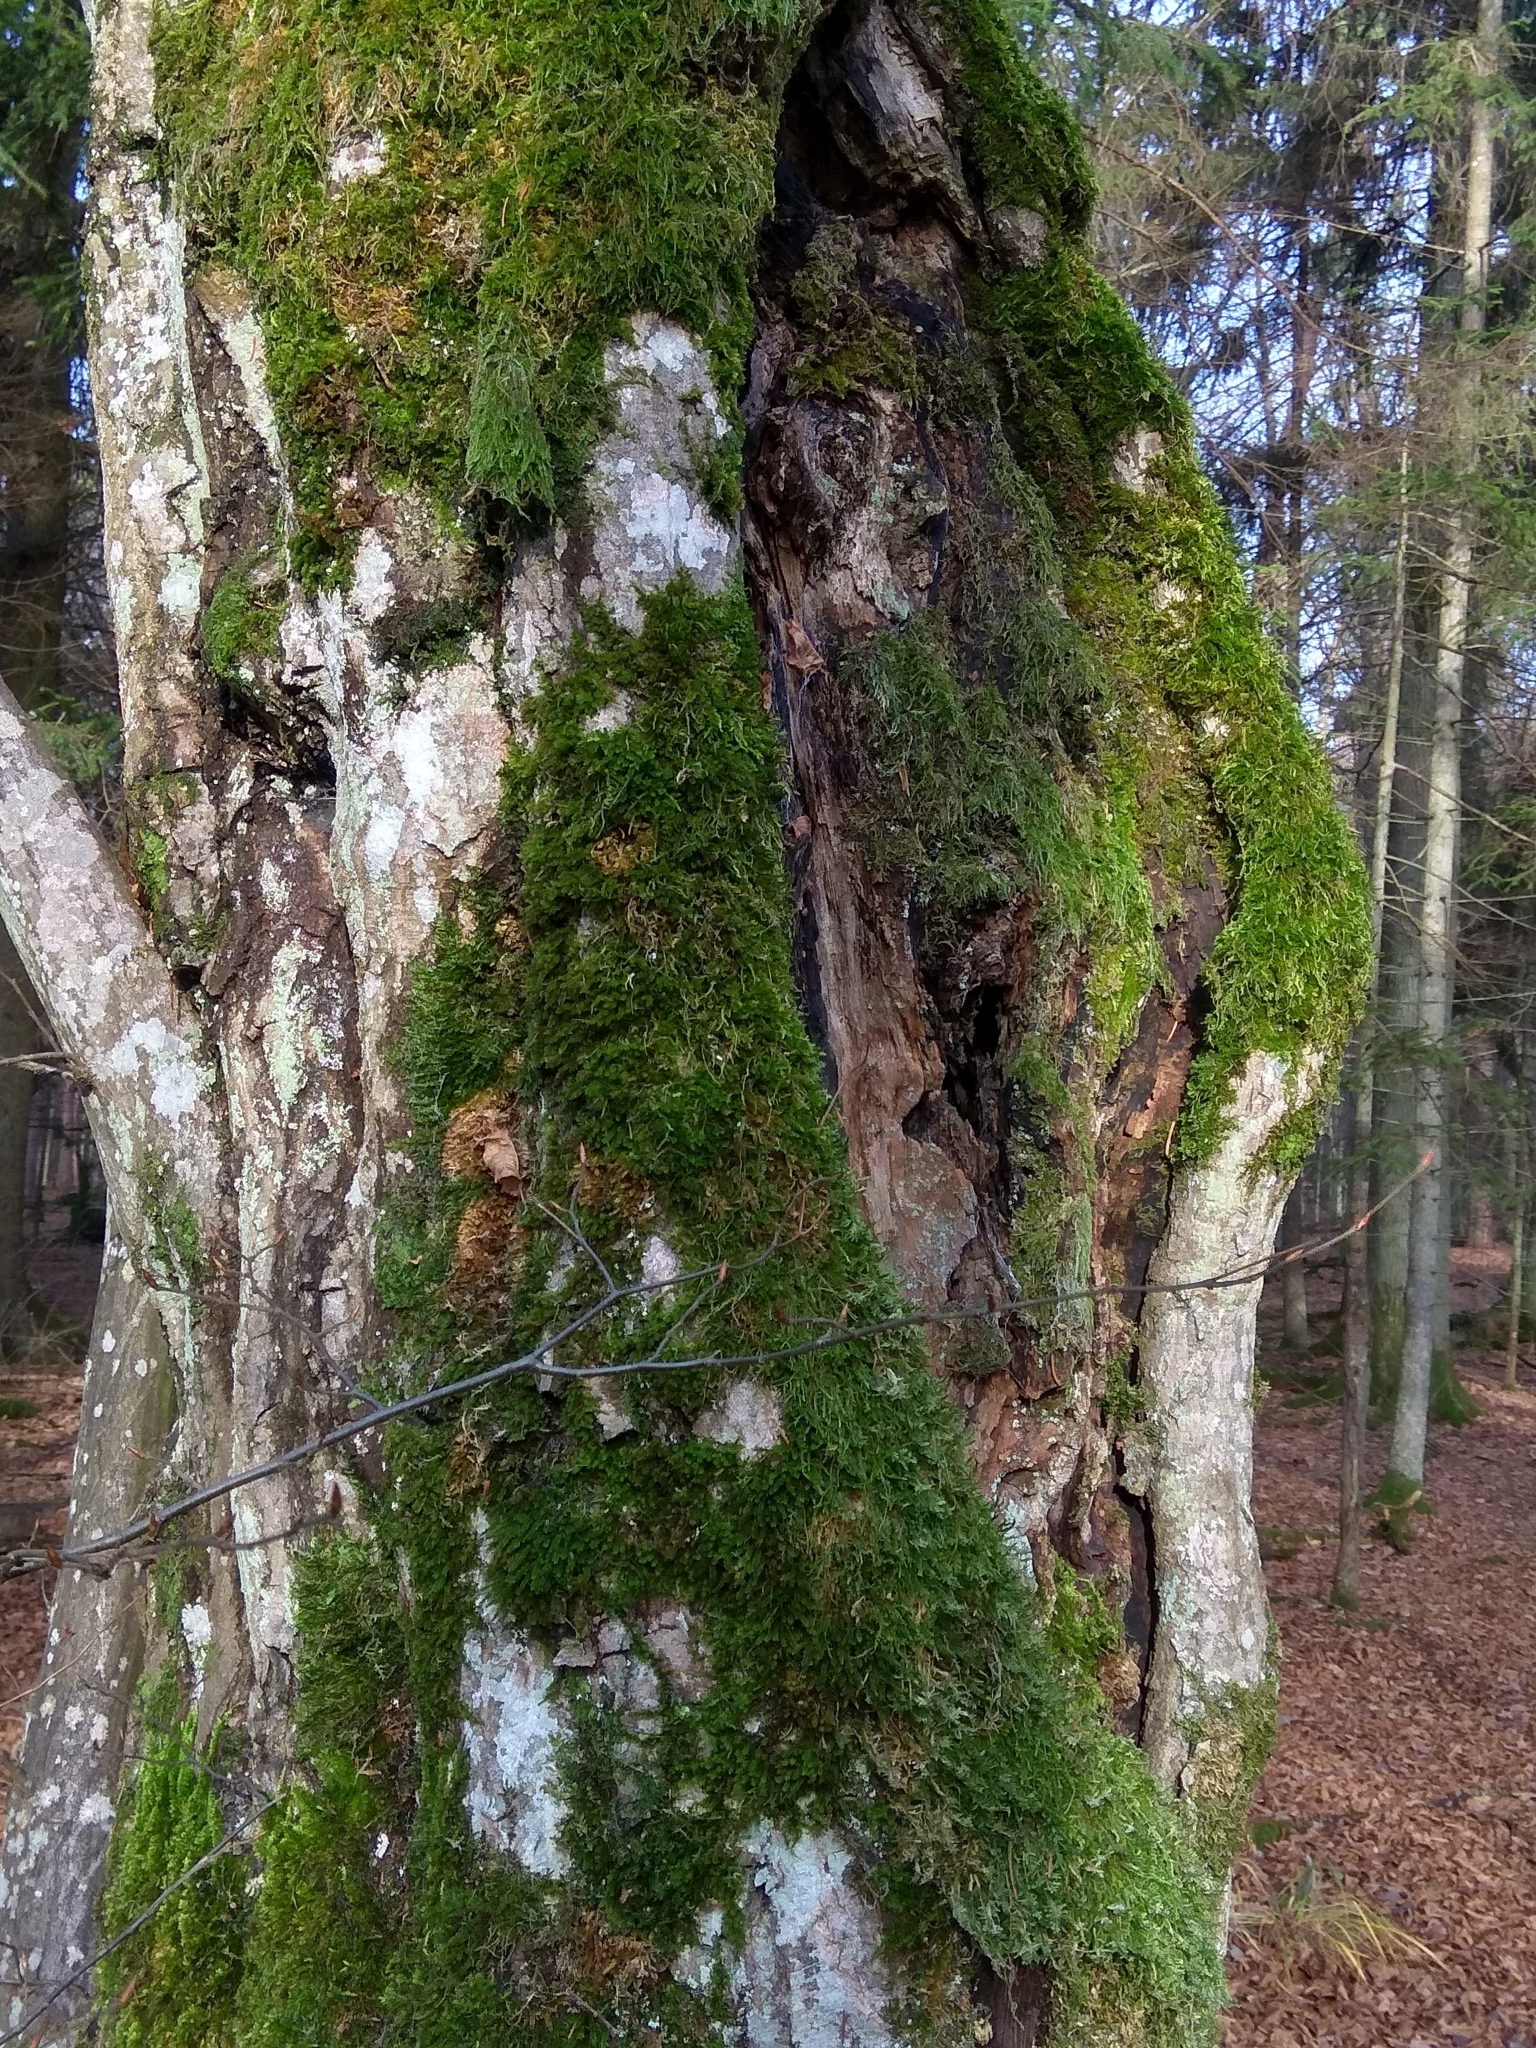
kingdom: Plantae
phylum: Tracheophyta
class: Magnoliopsida
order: Fagales
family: Betulaceae
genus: Carpinus
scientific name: Carpinus betulus
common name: Hornbeam
